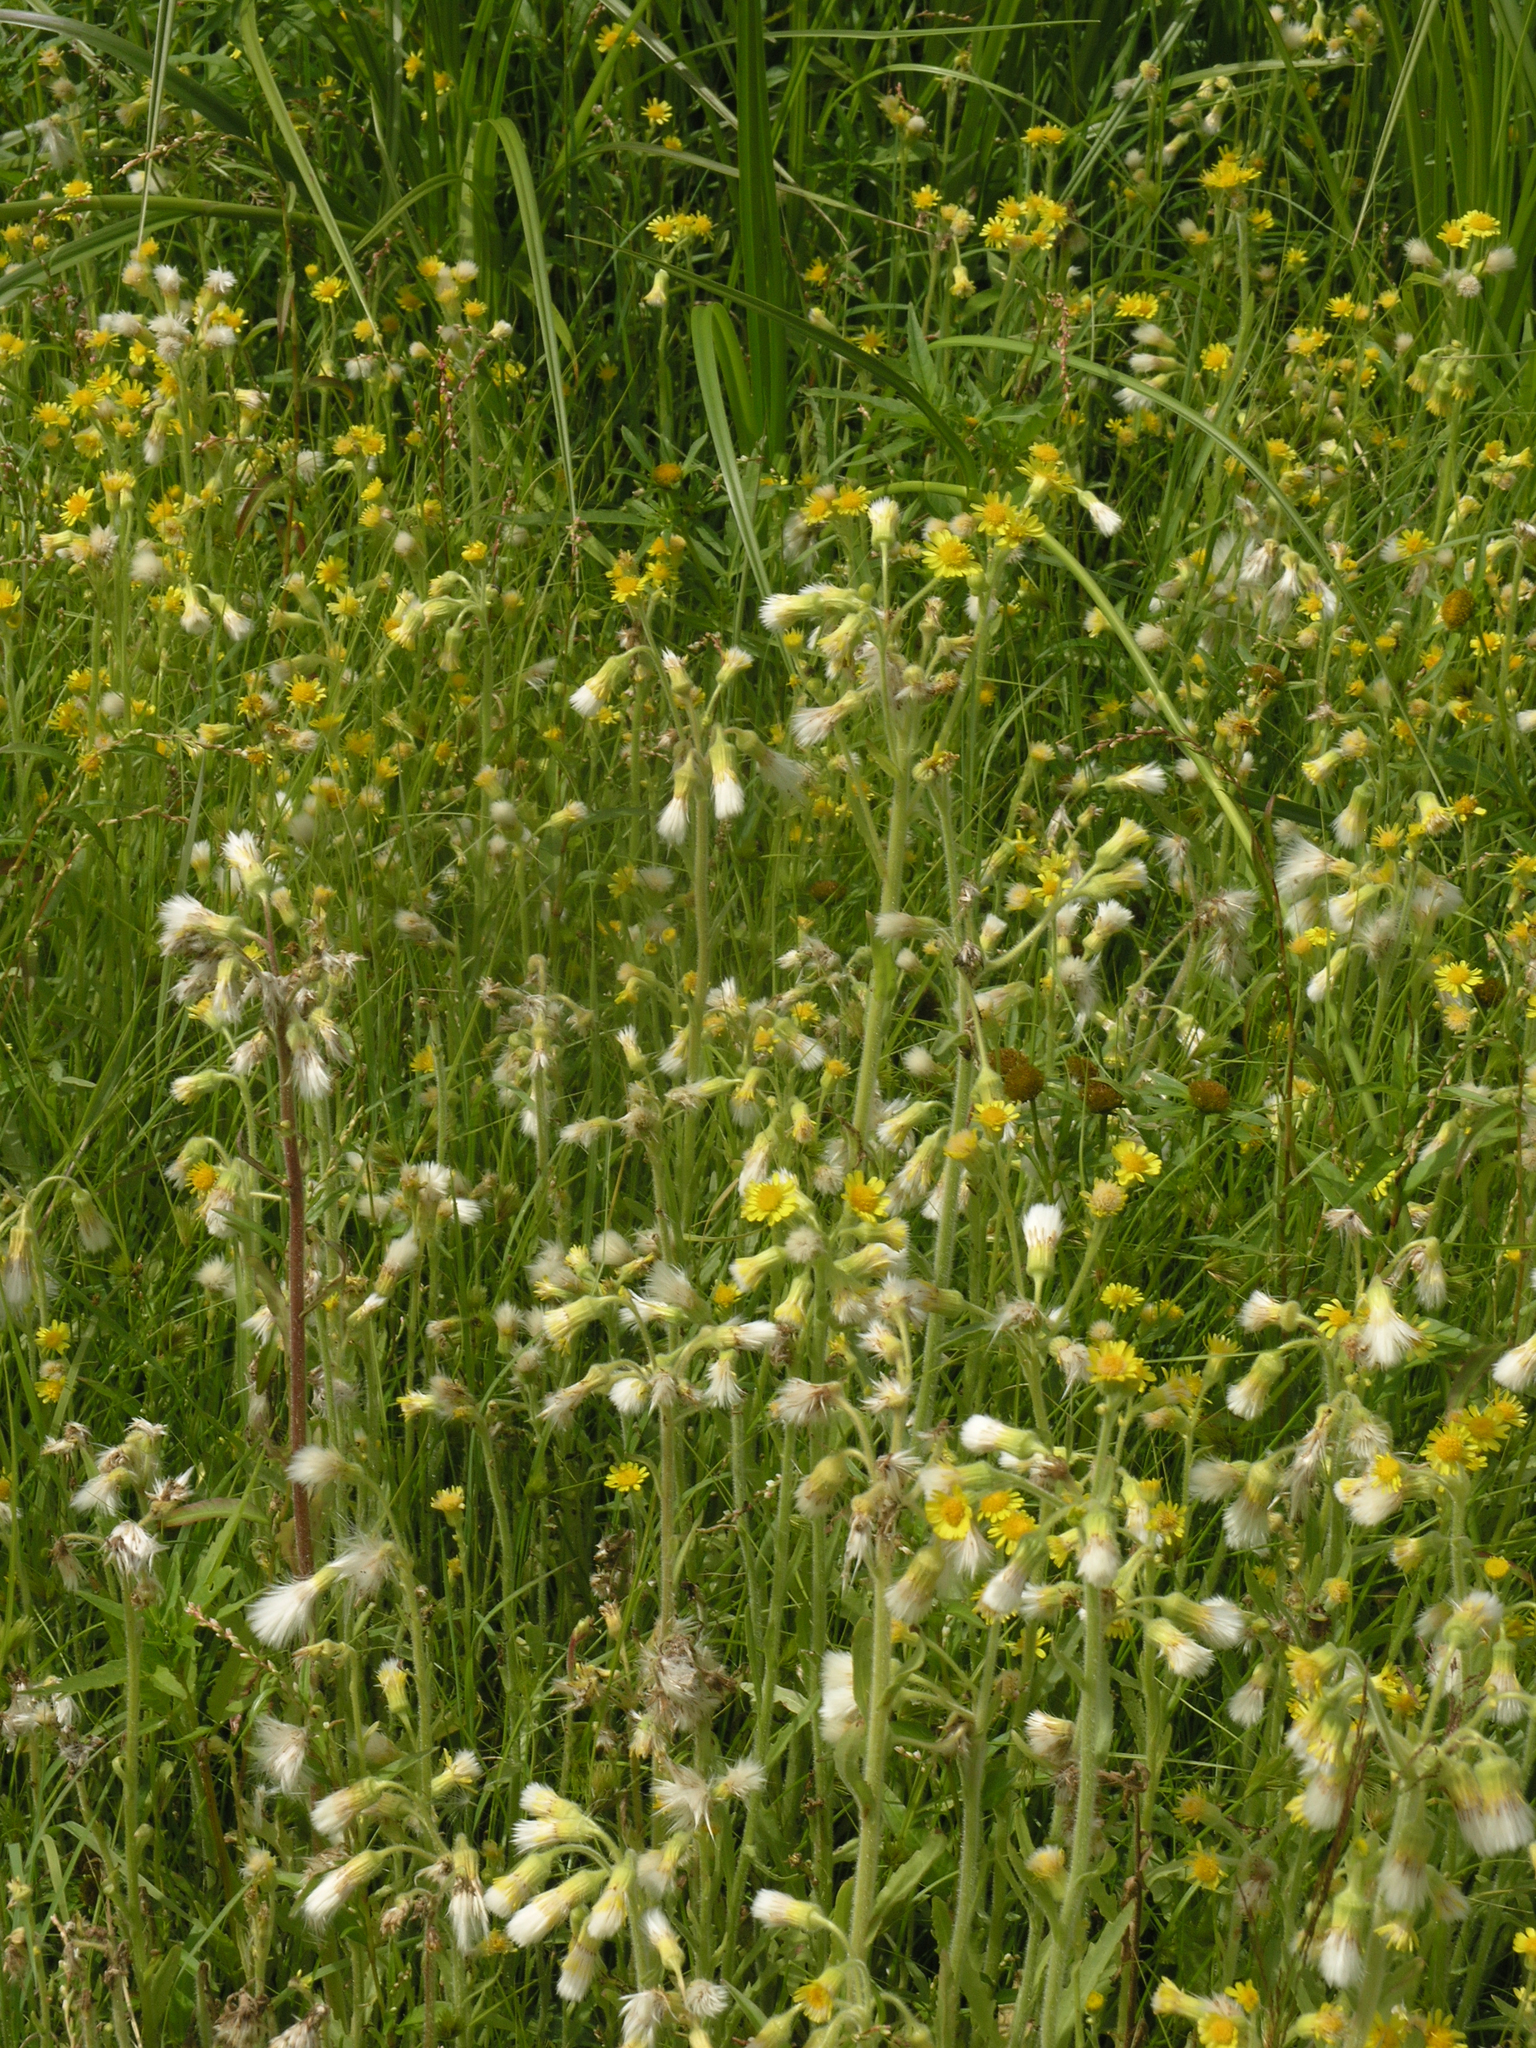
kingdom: Plantae
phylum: Tracheophyta
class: Magnoliopsida
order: Asterales
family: Asteraceae
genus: Tephroseris
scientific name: Tephroseris palustris
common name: Marsh fleawort
